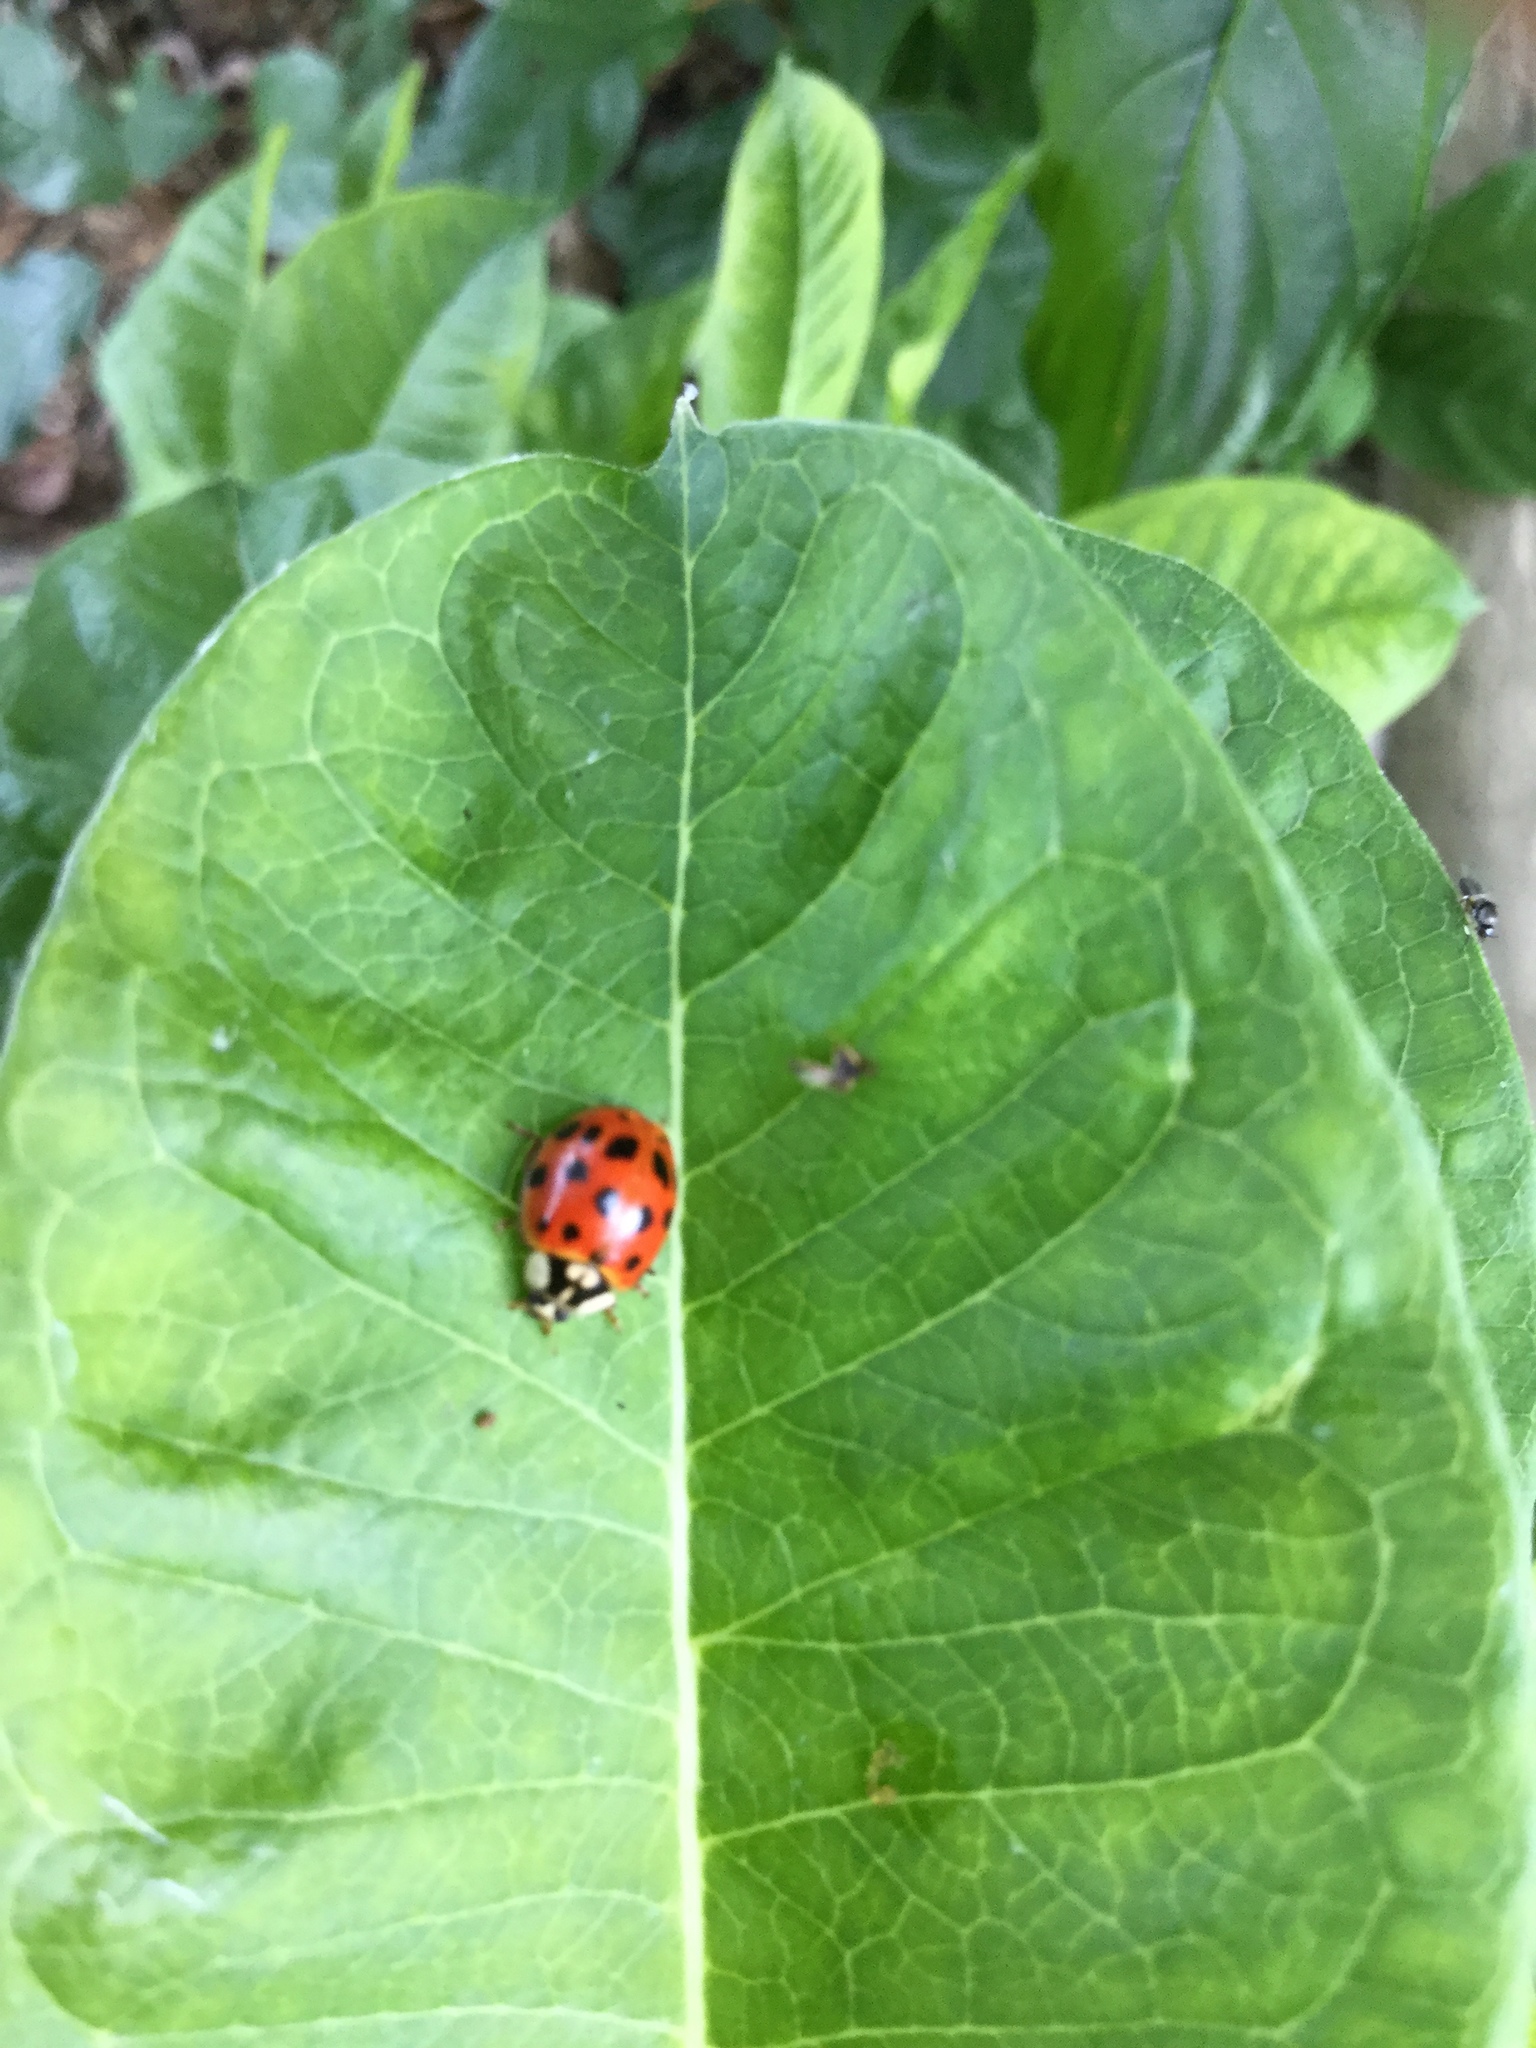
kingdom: Animalia
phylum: Arthropoda
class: Insecta
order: Coleoptera
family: Coccinellidae
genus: Harmonia
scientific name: Harmonia axyridis
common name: Harlequin ladybird
